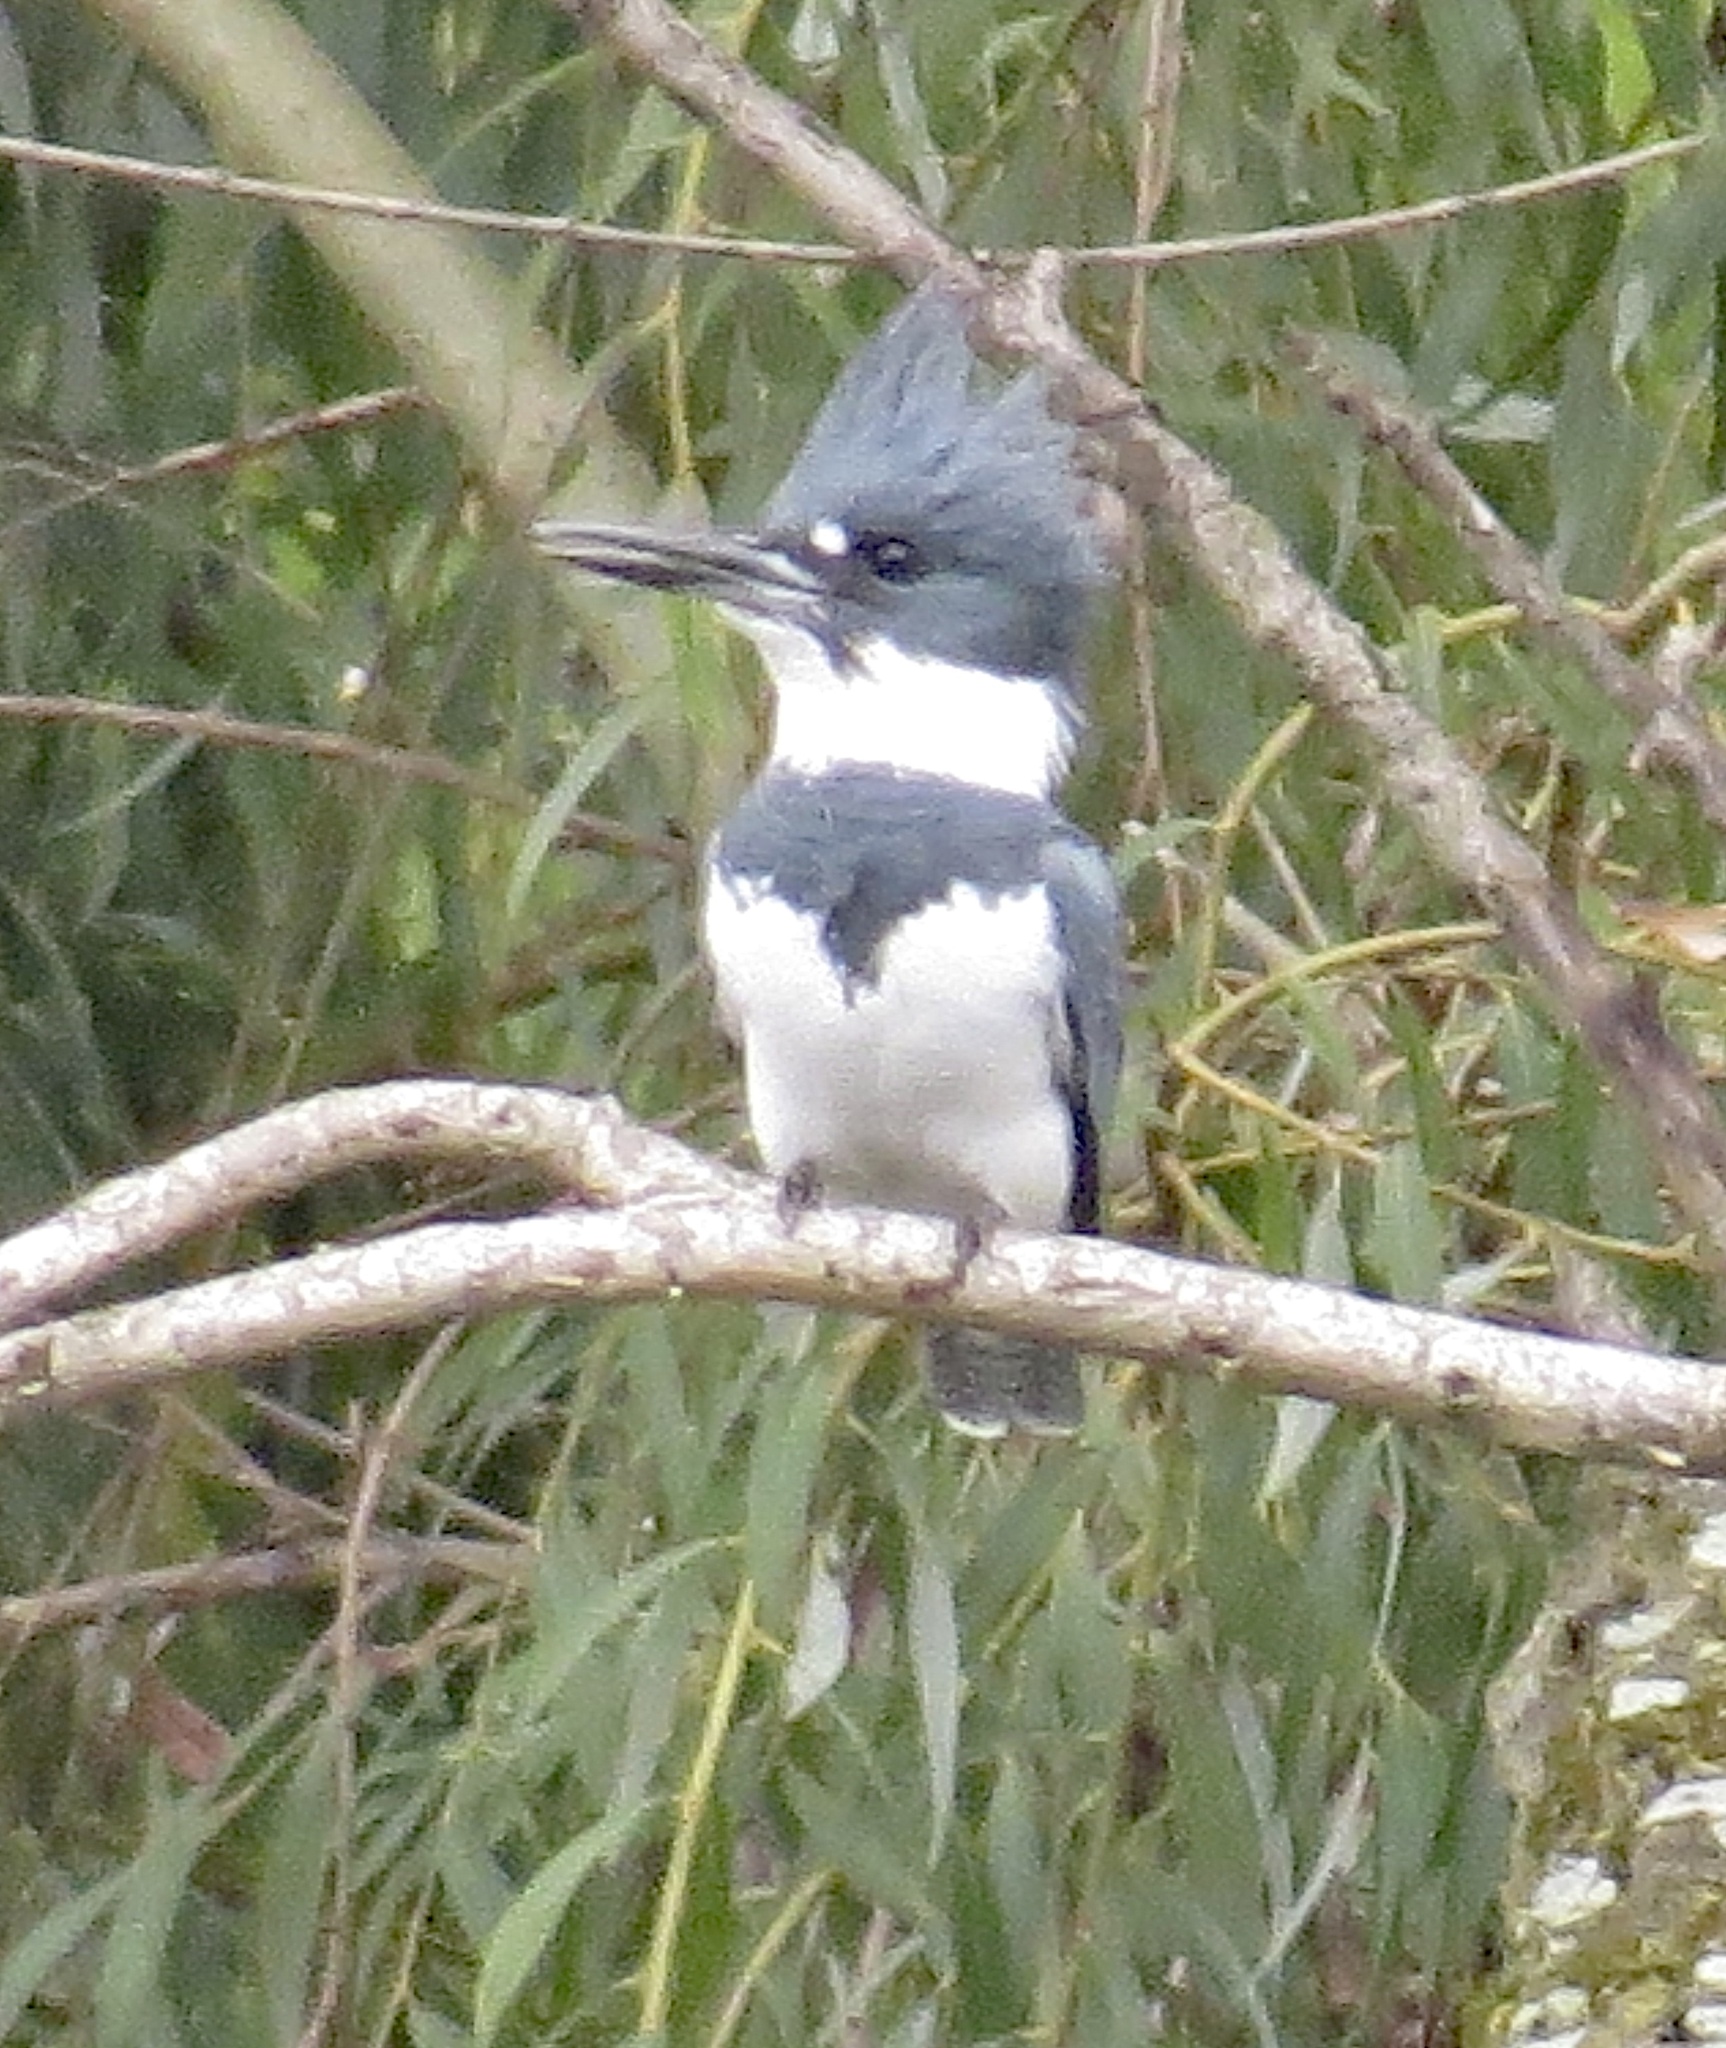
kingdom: Animalia
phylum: Chordata
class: Aves
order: Coraciiformes
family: Alcedinidae
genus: Megaceryle
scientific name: Megaceryle alcyon
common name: Belted kingfisher
